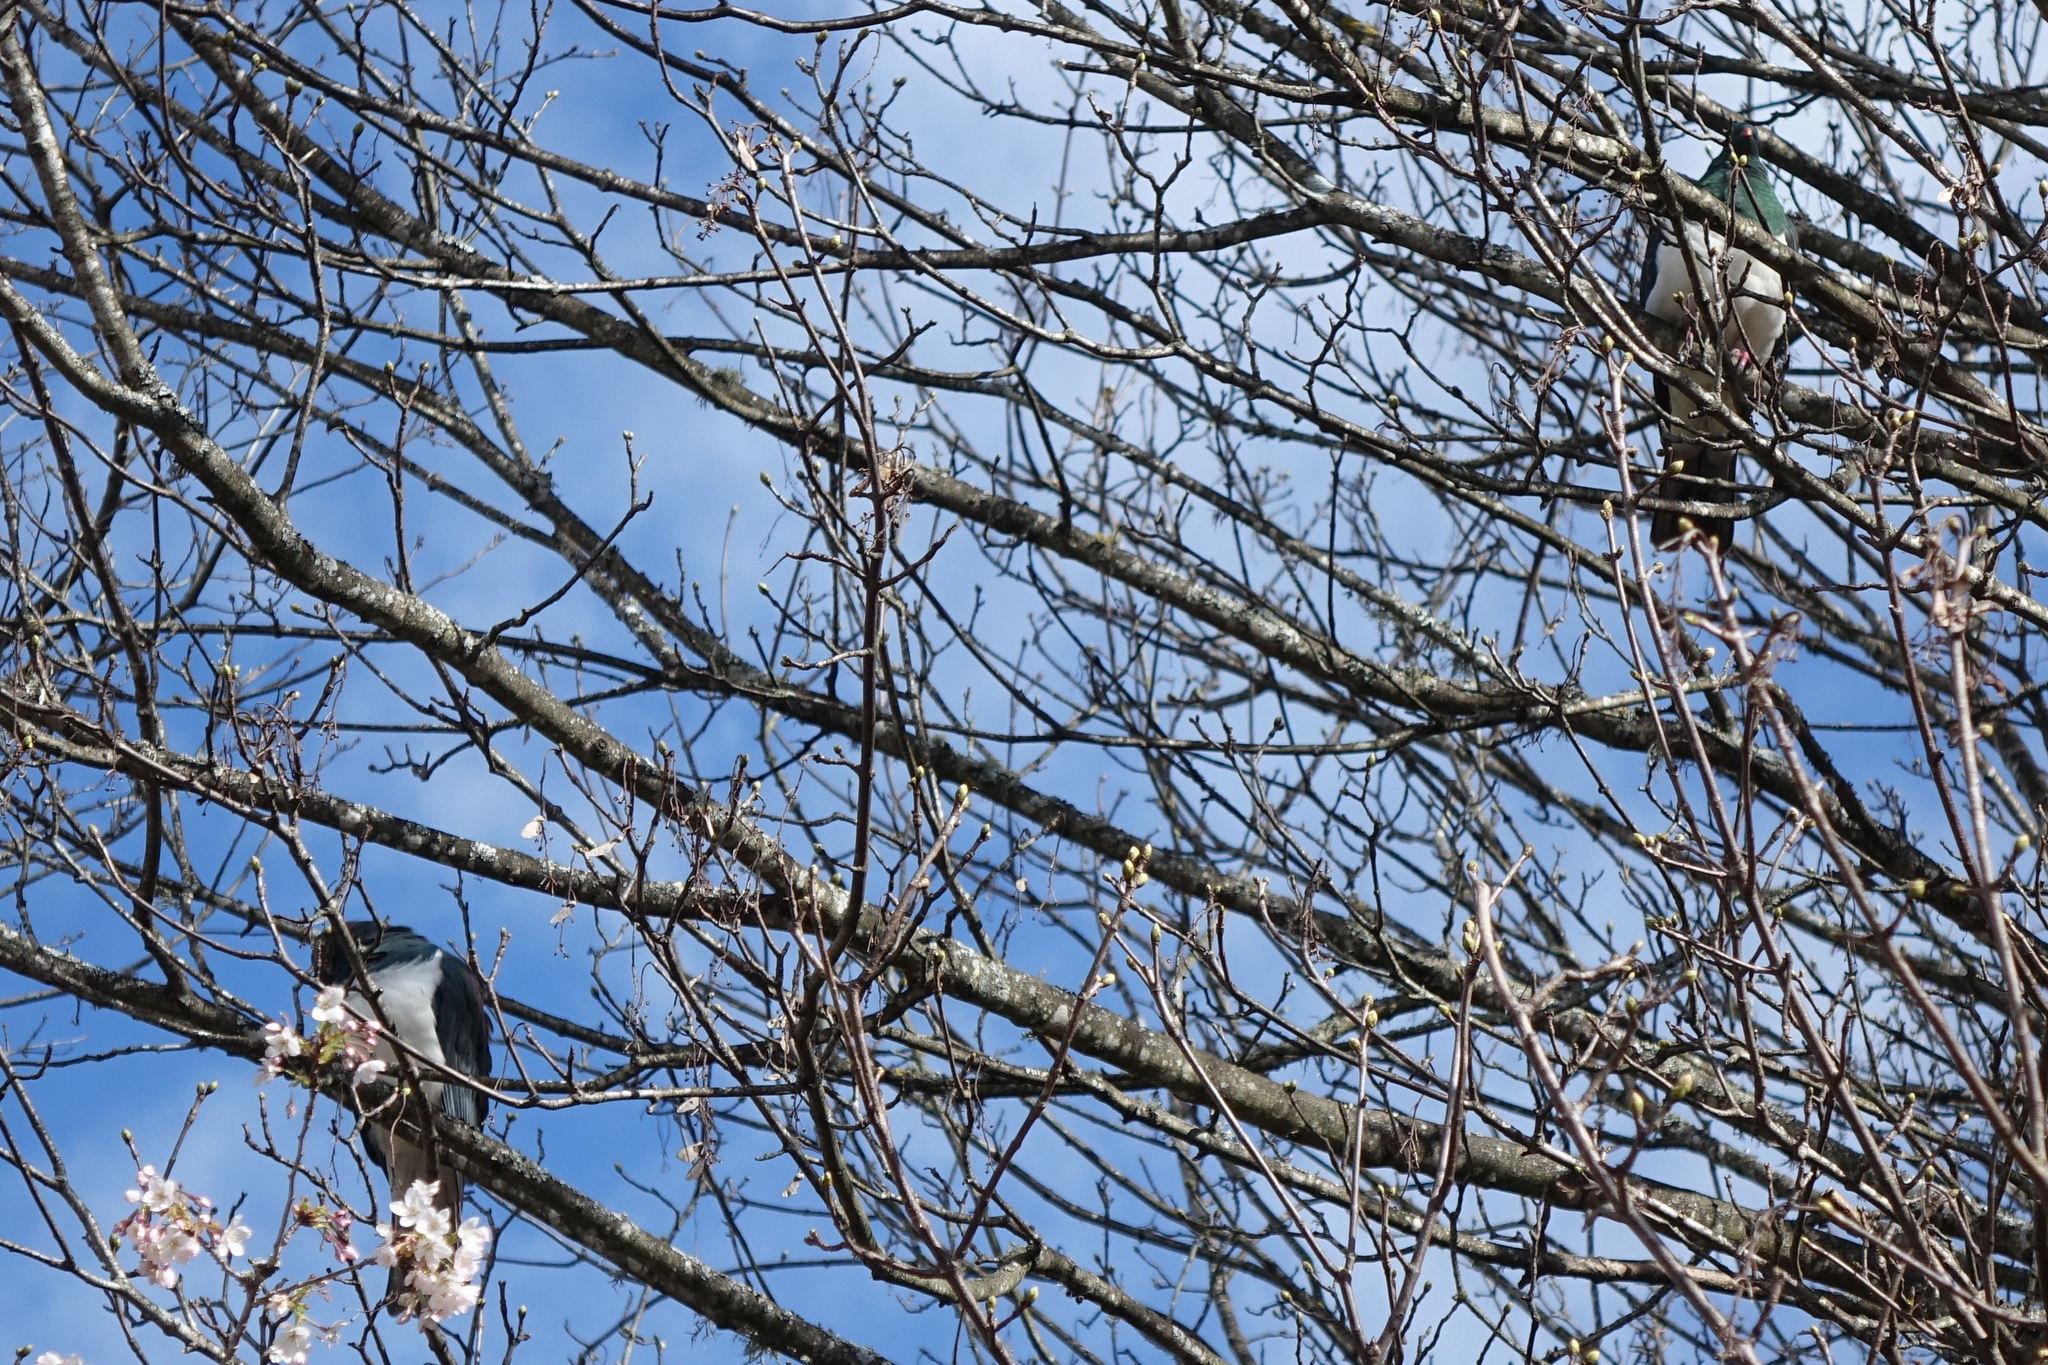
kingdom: Animalia
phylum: Chordata
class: Aves
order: Columbiformes
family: Columbidae
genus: Hemiphaga
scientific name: Hemiphaga novaeseelandiae
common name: New zealand pigeon
